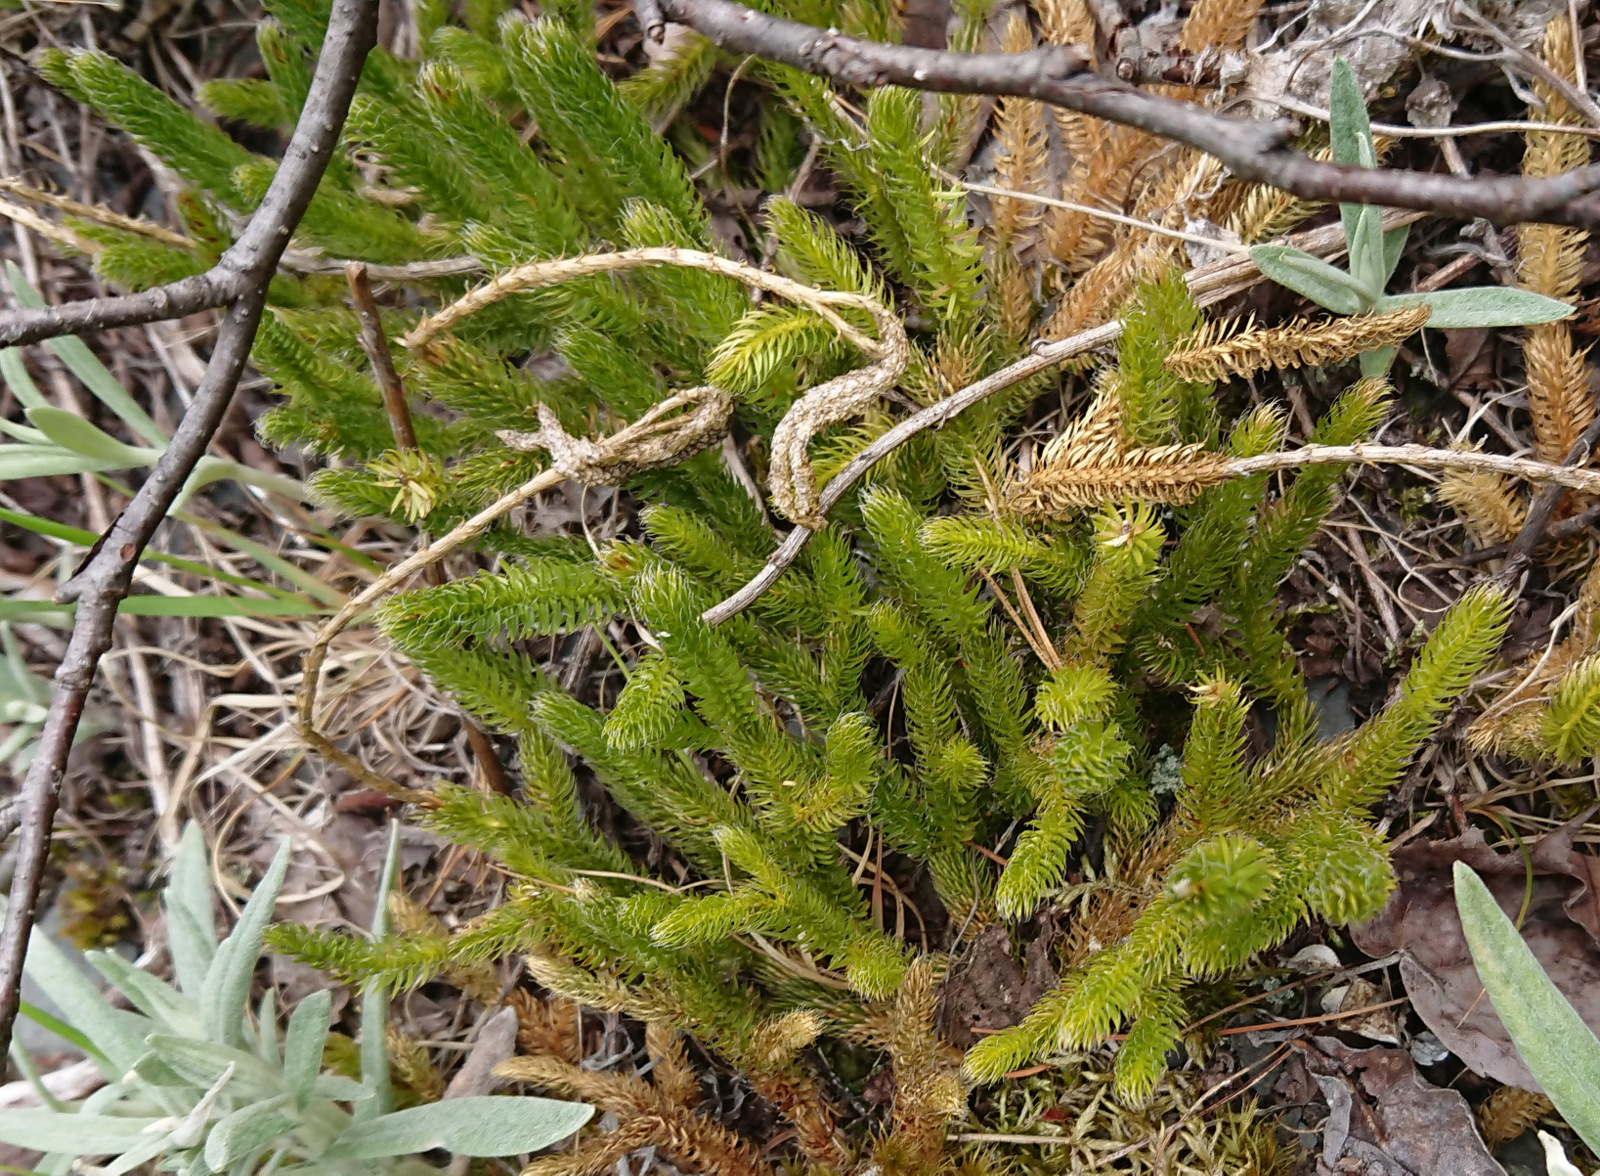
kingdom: Plantae
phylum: Tracheophyta
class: Lycopodiopsida
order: Lycopodiales
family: Lycopodiaceae
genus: Lycopodium
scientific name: Lycopodium clavatum
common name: Stag's-horn clubmoss
